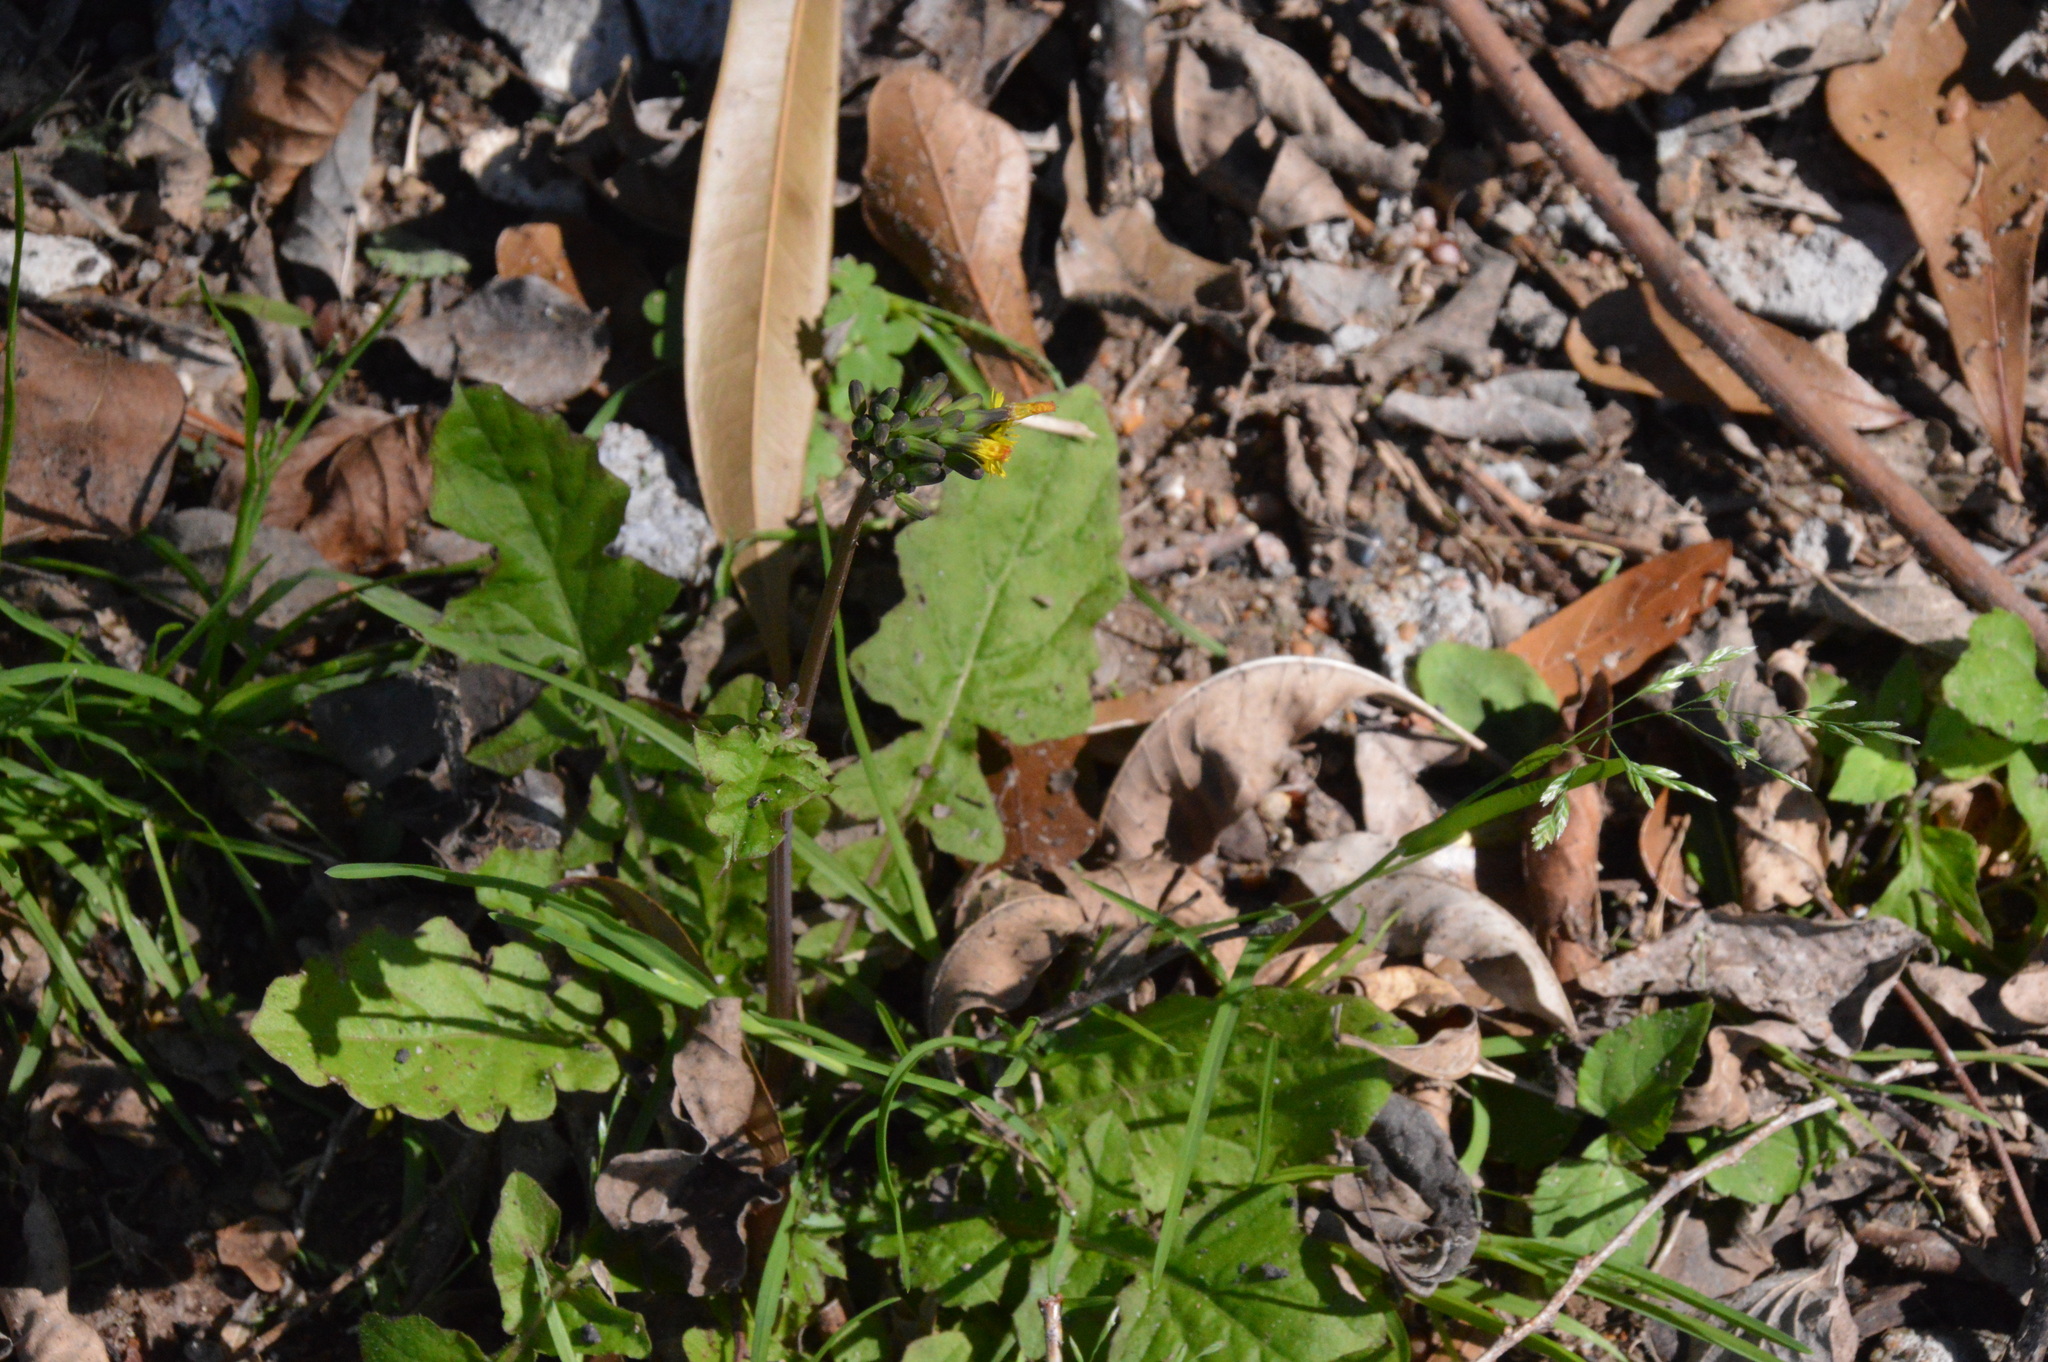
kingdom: Plantae
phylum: Tracheophyta
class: Magnoliopsida
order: Asterales
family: Asteraceae
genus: Youngia
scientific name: Youngia japonica
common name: Oriental false hawksbeard
